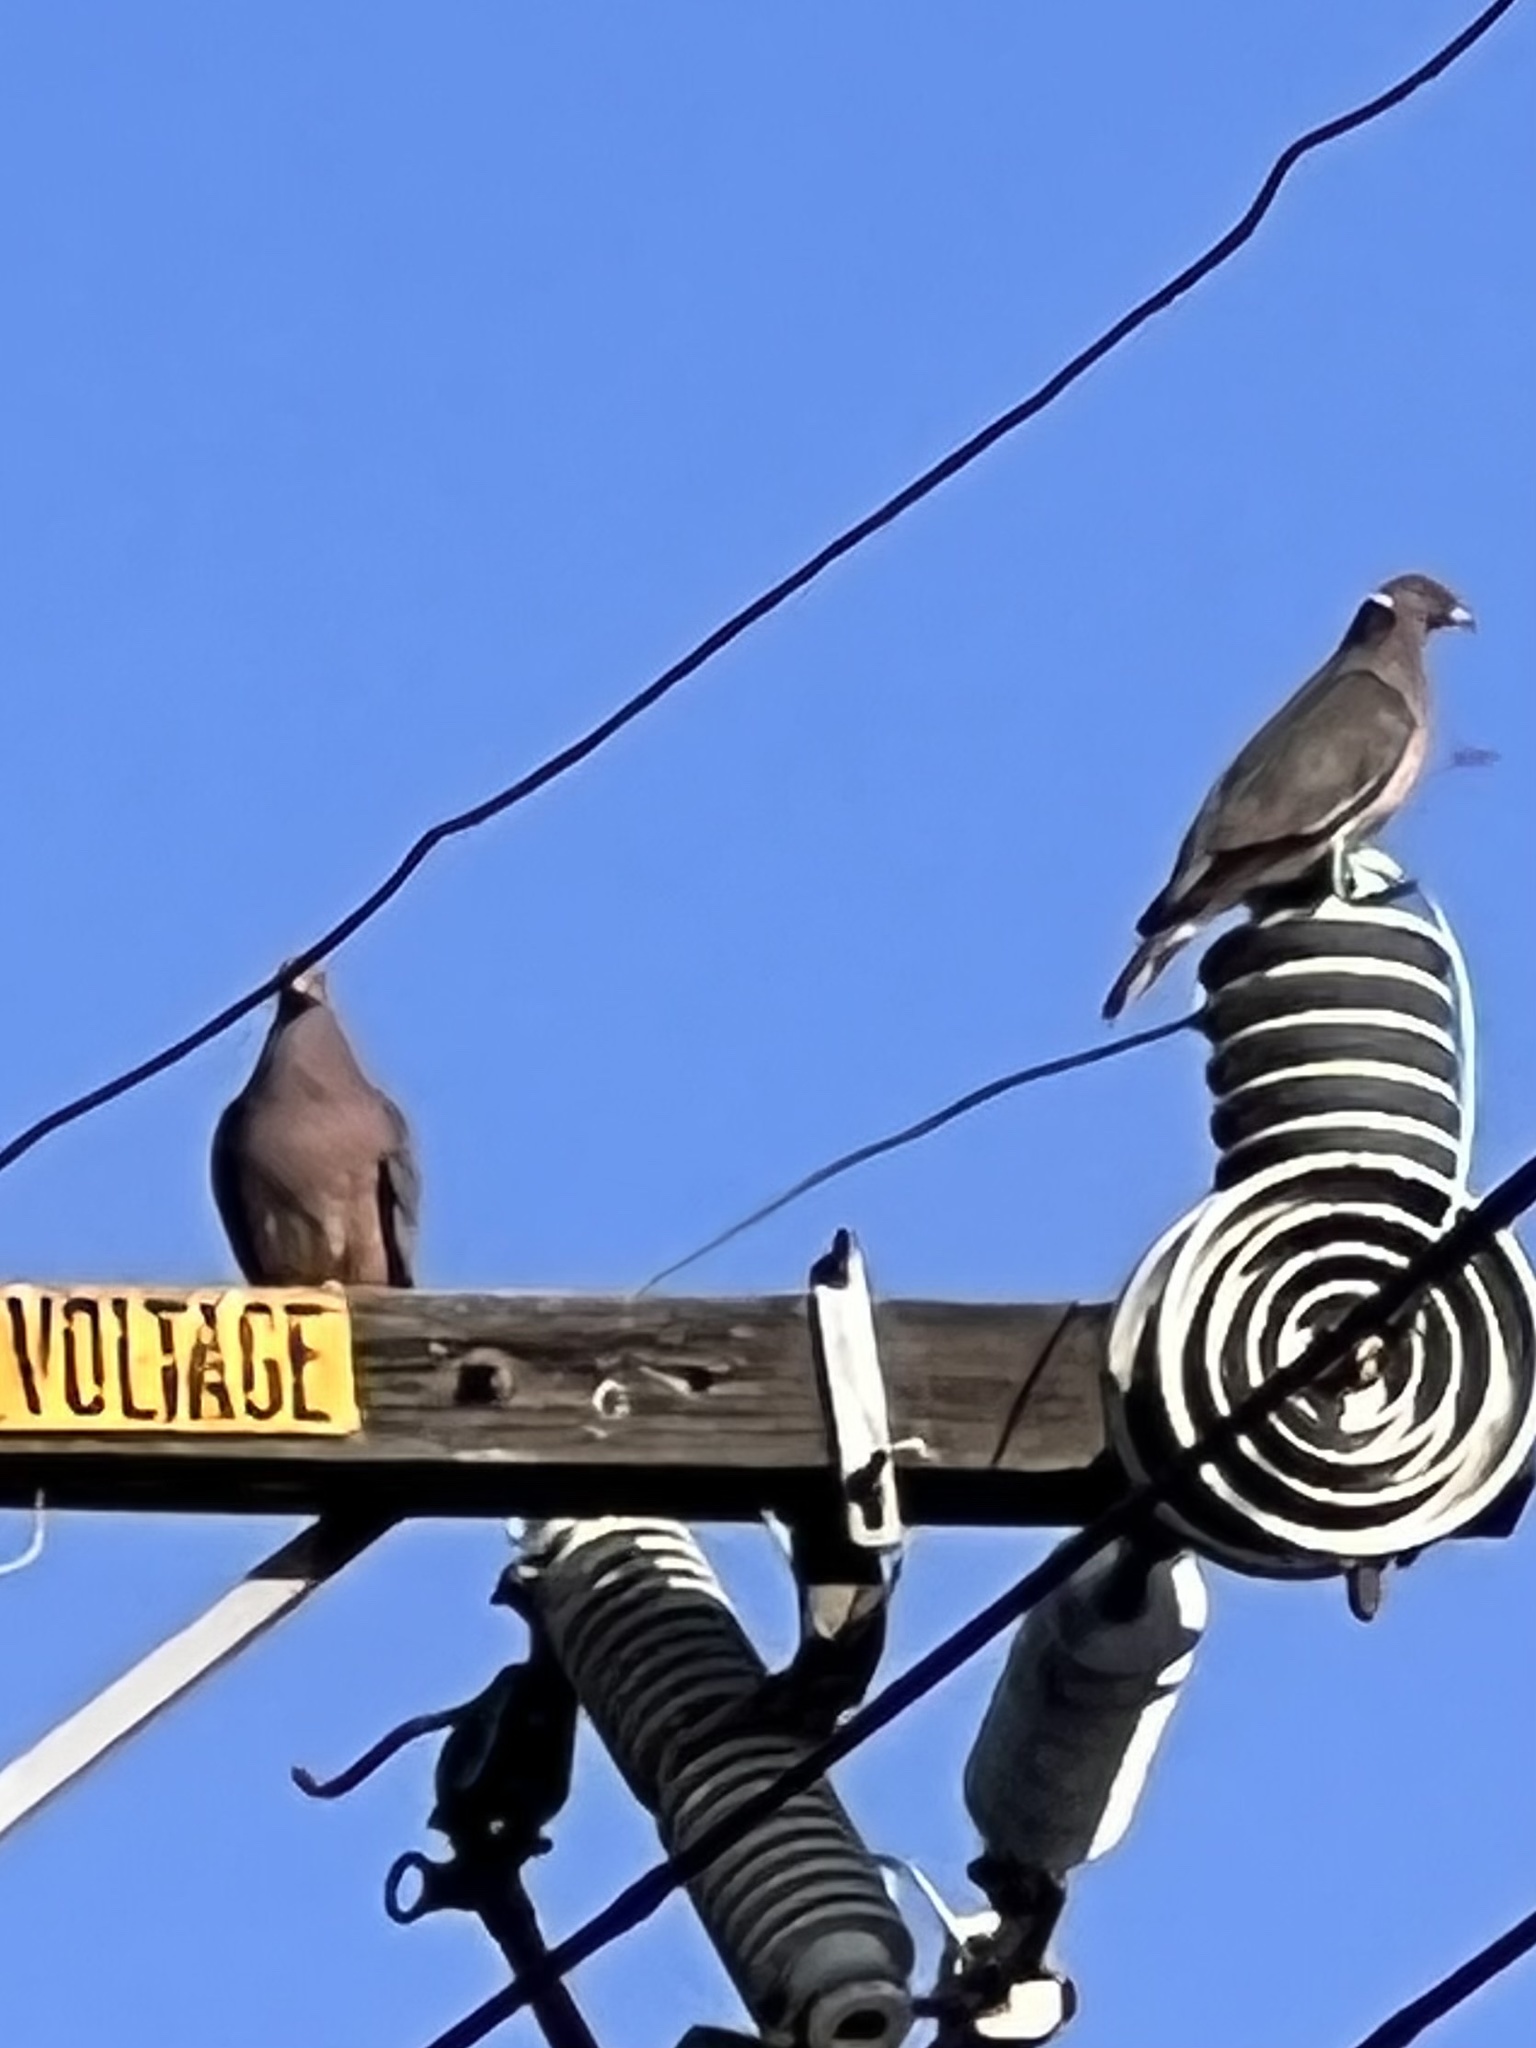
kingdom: Animalia
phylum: Chordata
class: Aves
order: Columbiformes
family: Columbidae
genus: Patagioenas
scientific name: Patagioenas fasciata
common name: Band-tailed pigeon
